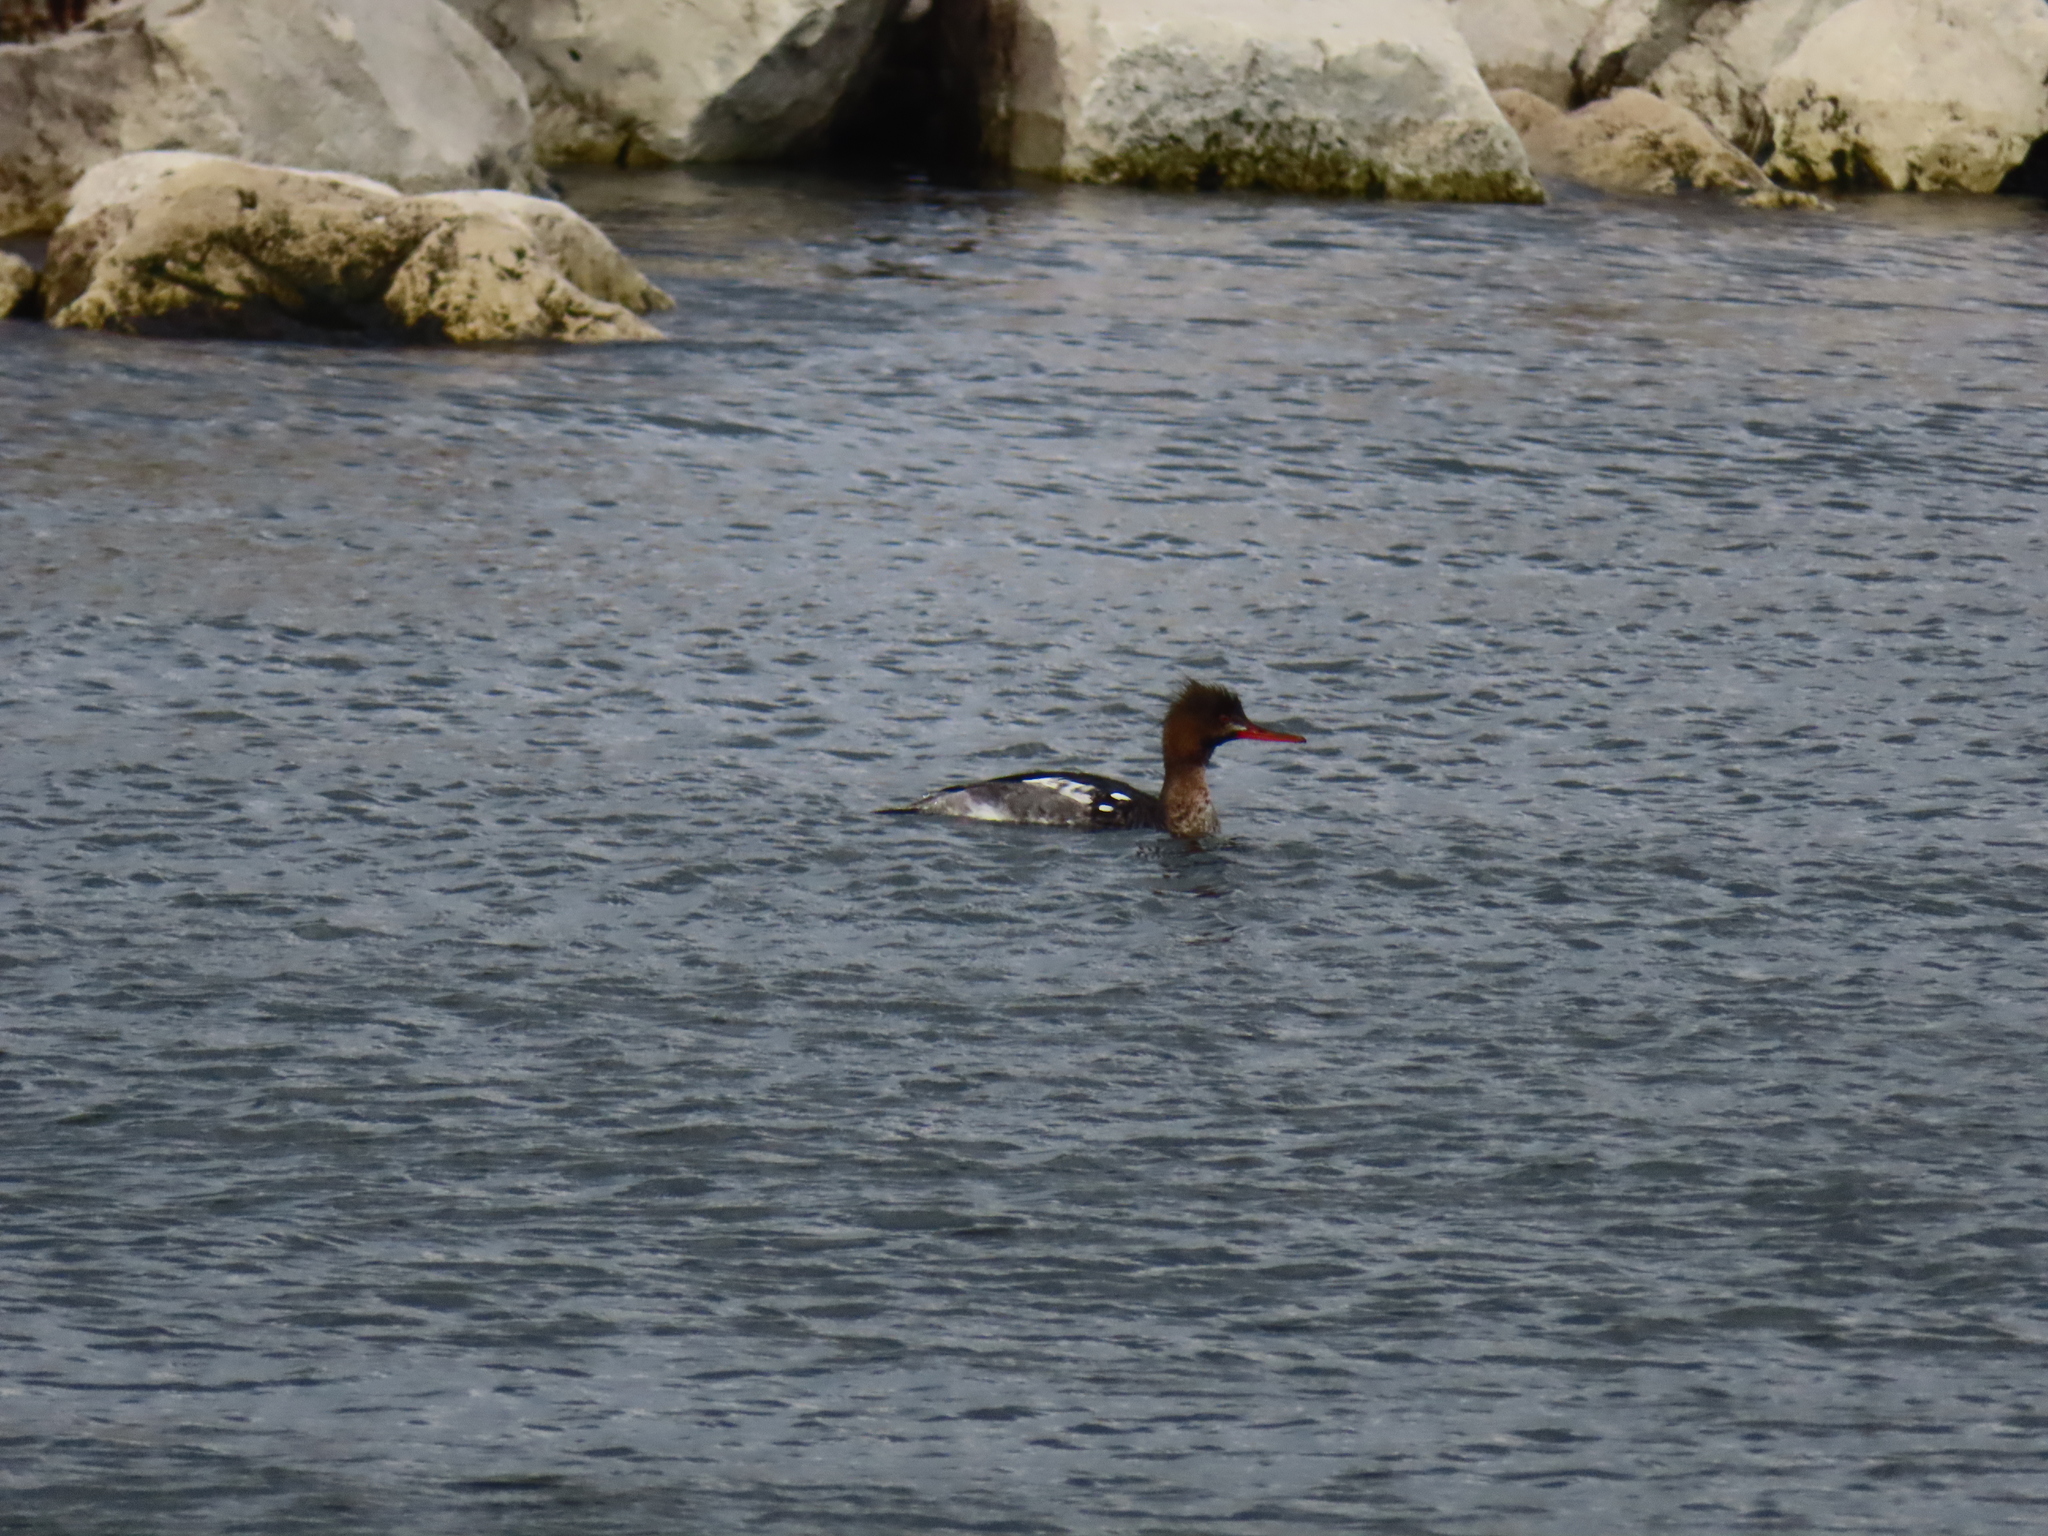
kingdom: Animalia
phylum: Chordata
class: Aves
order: Anseriformes
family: Anatidae
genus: Mergus
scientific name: Mergus serrator
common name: Red-breasted merganser
